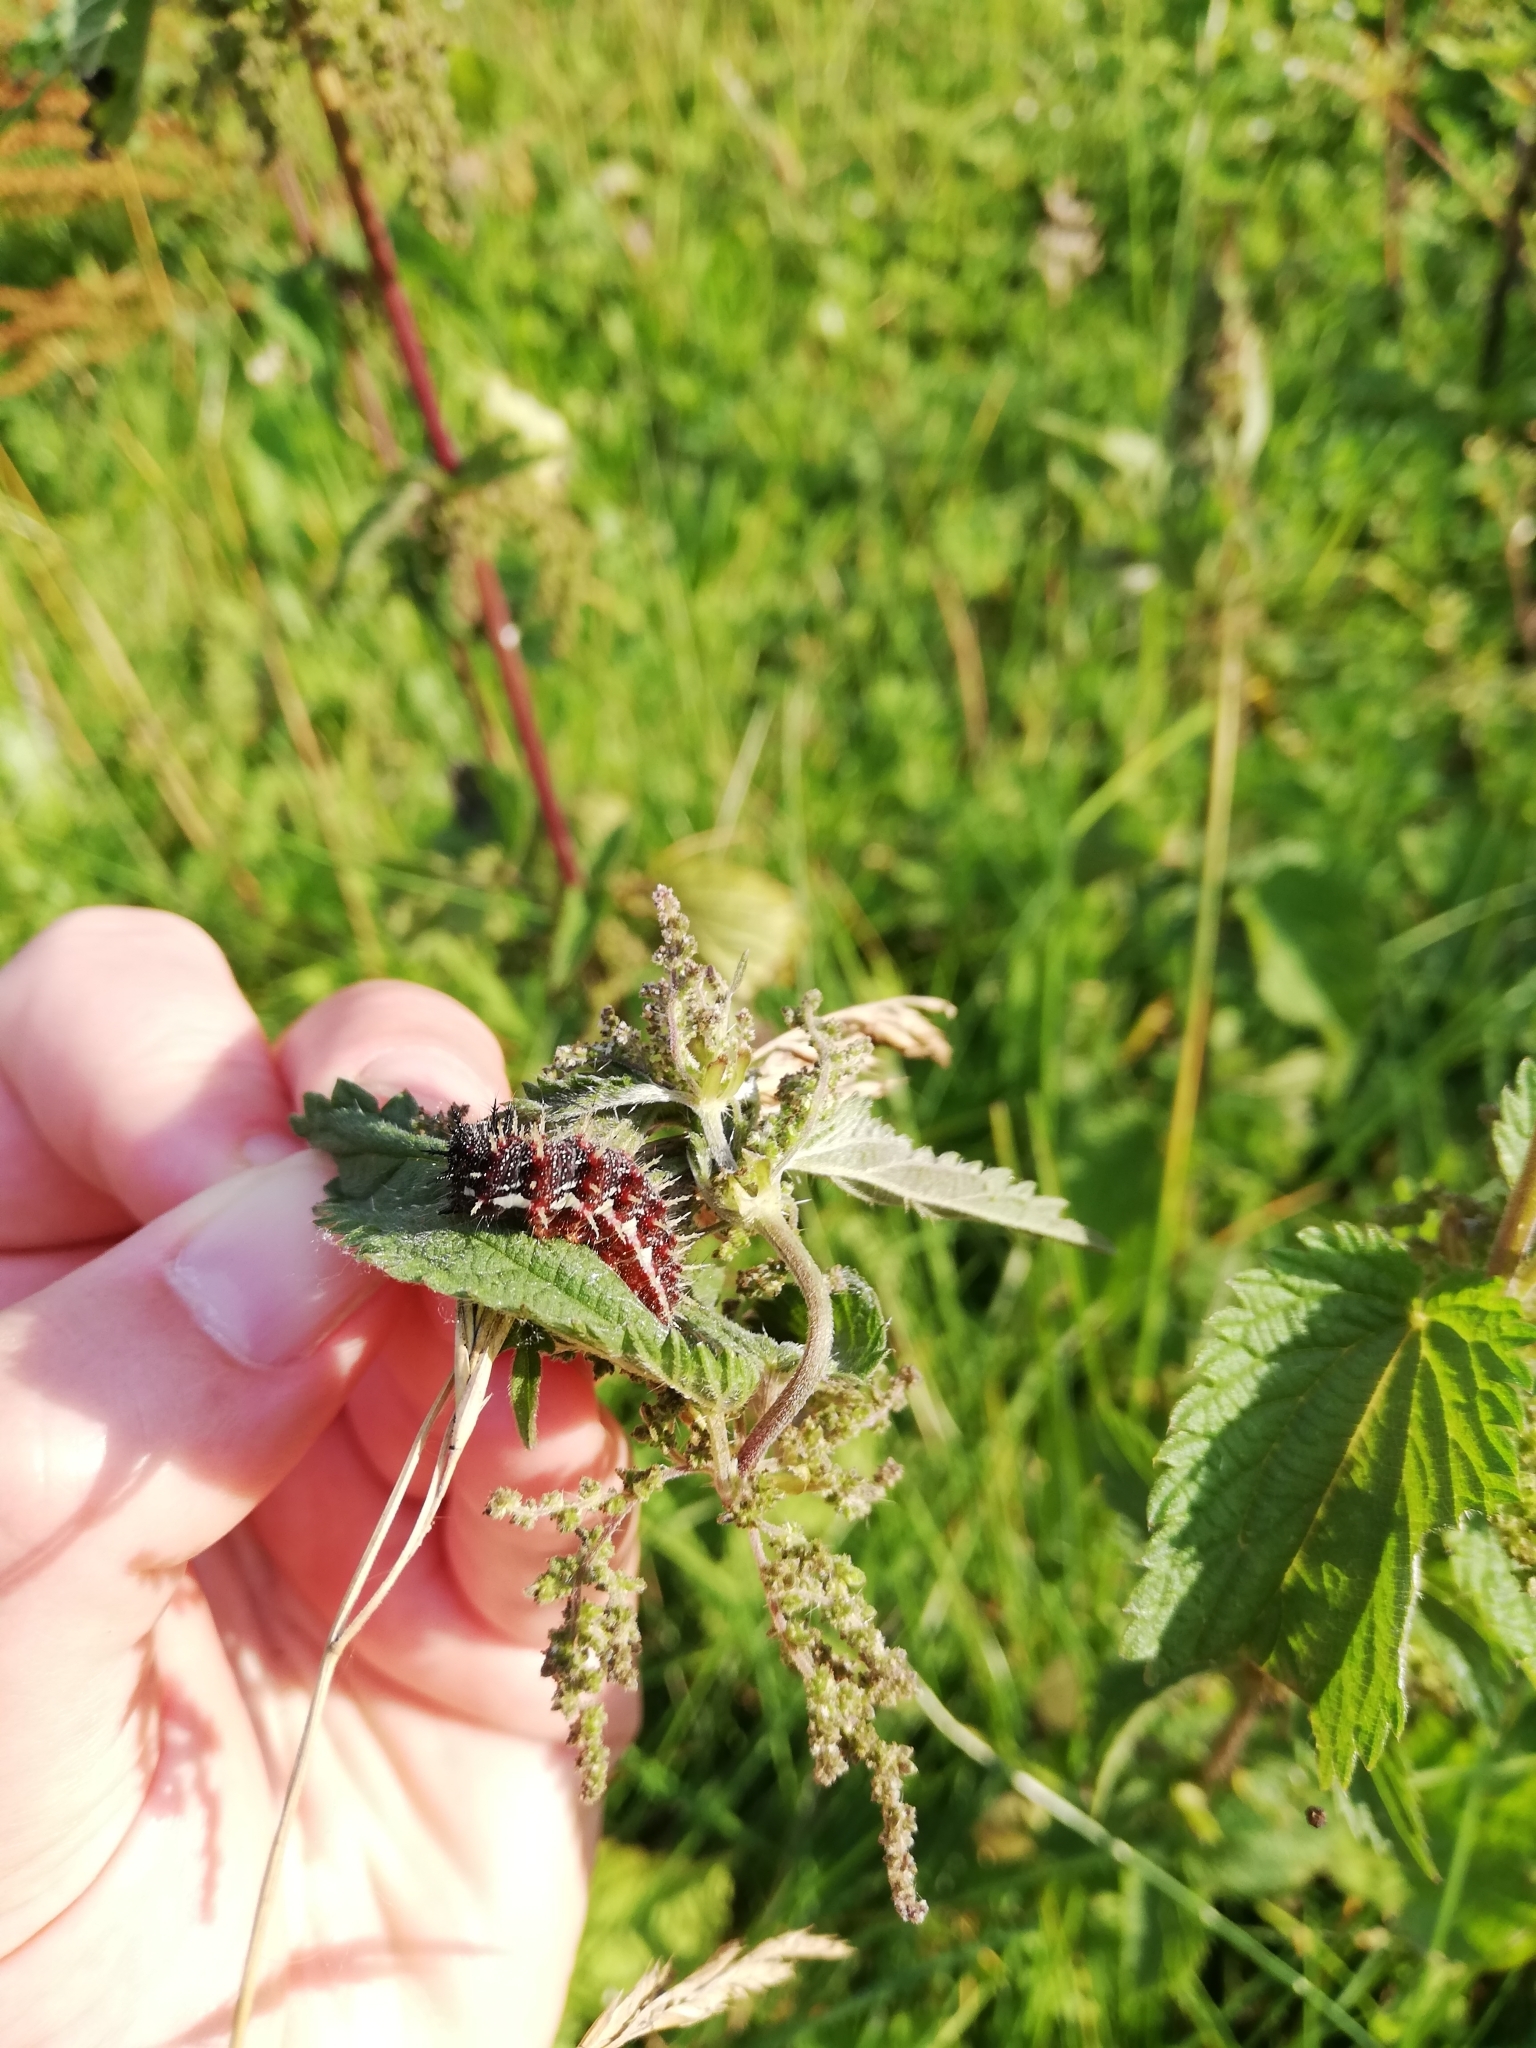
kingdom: Animalia
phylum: Arthropoda
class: Insecta
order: Lepidoptera
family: Nymphalidae
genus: Vanessa
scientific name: Vanessa atalanta
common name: Red admiral
